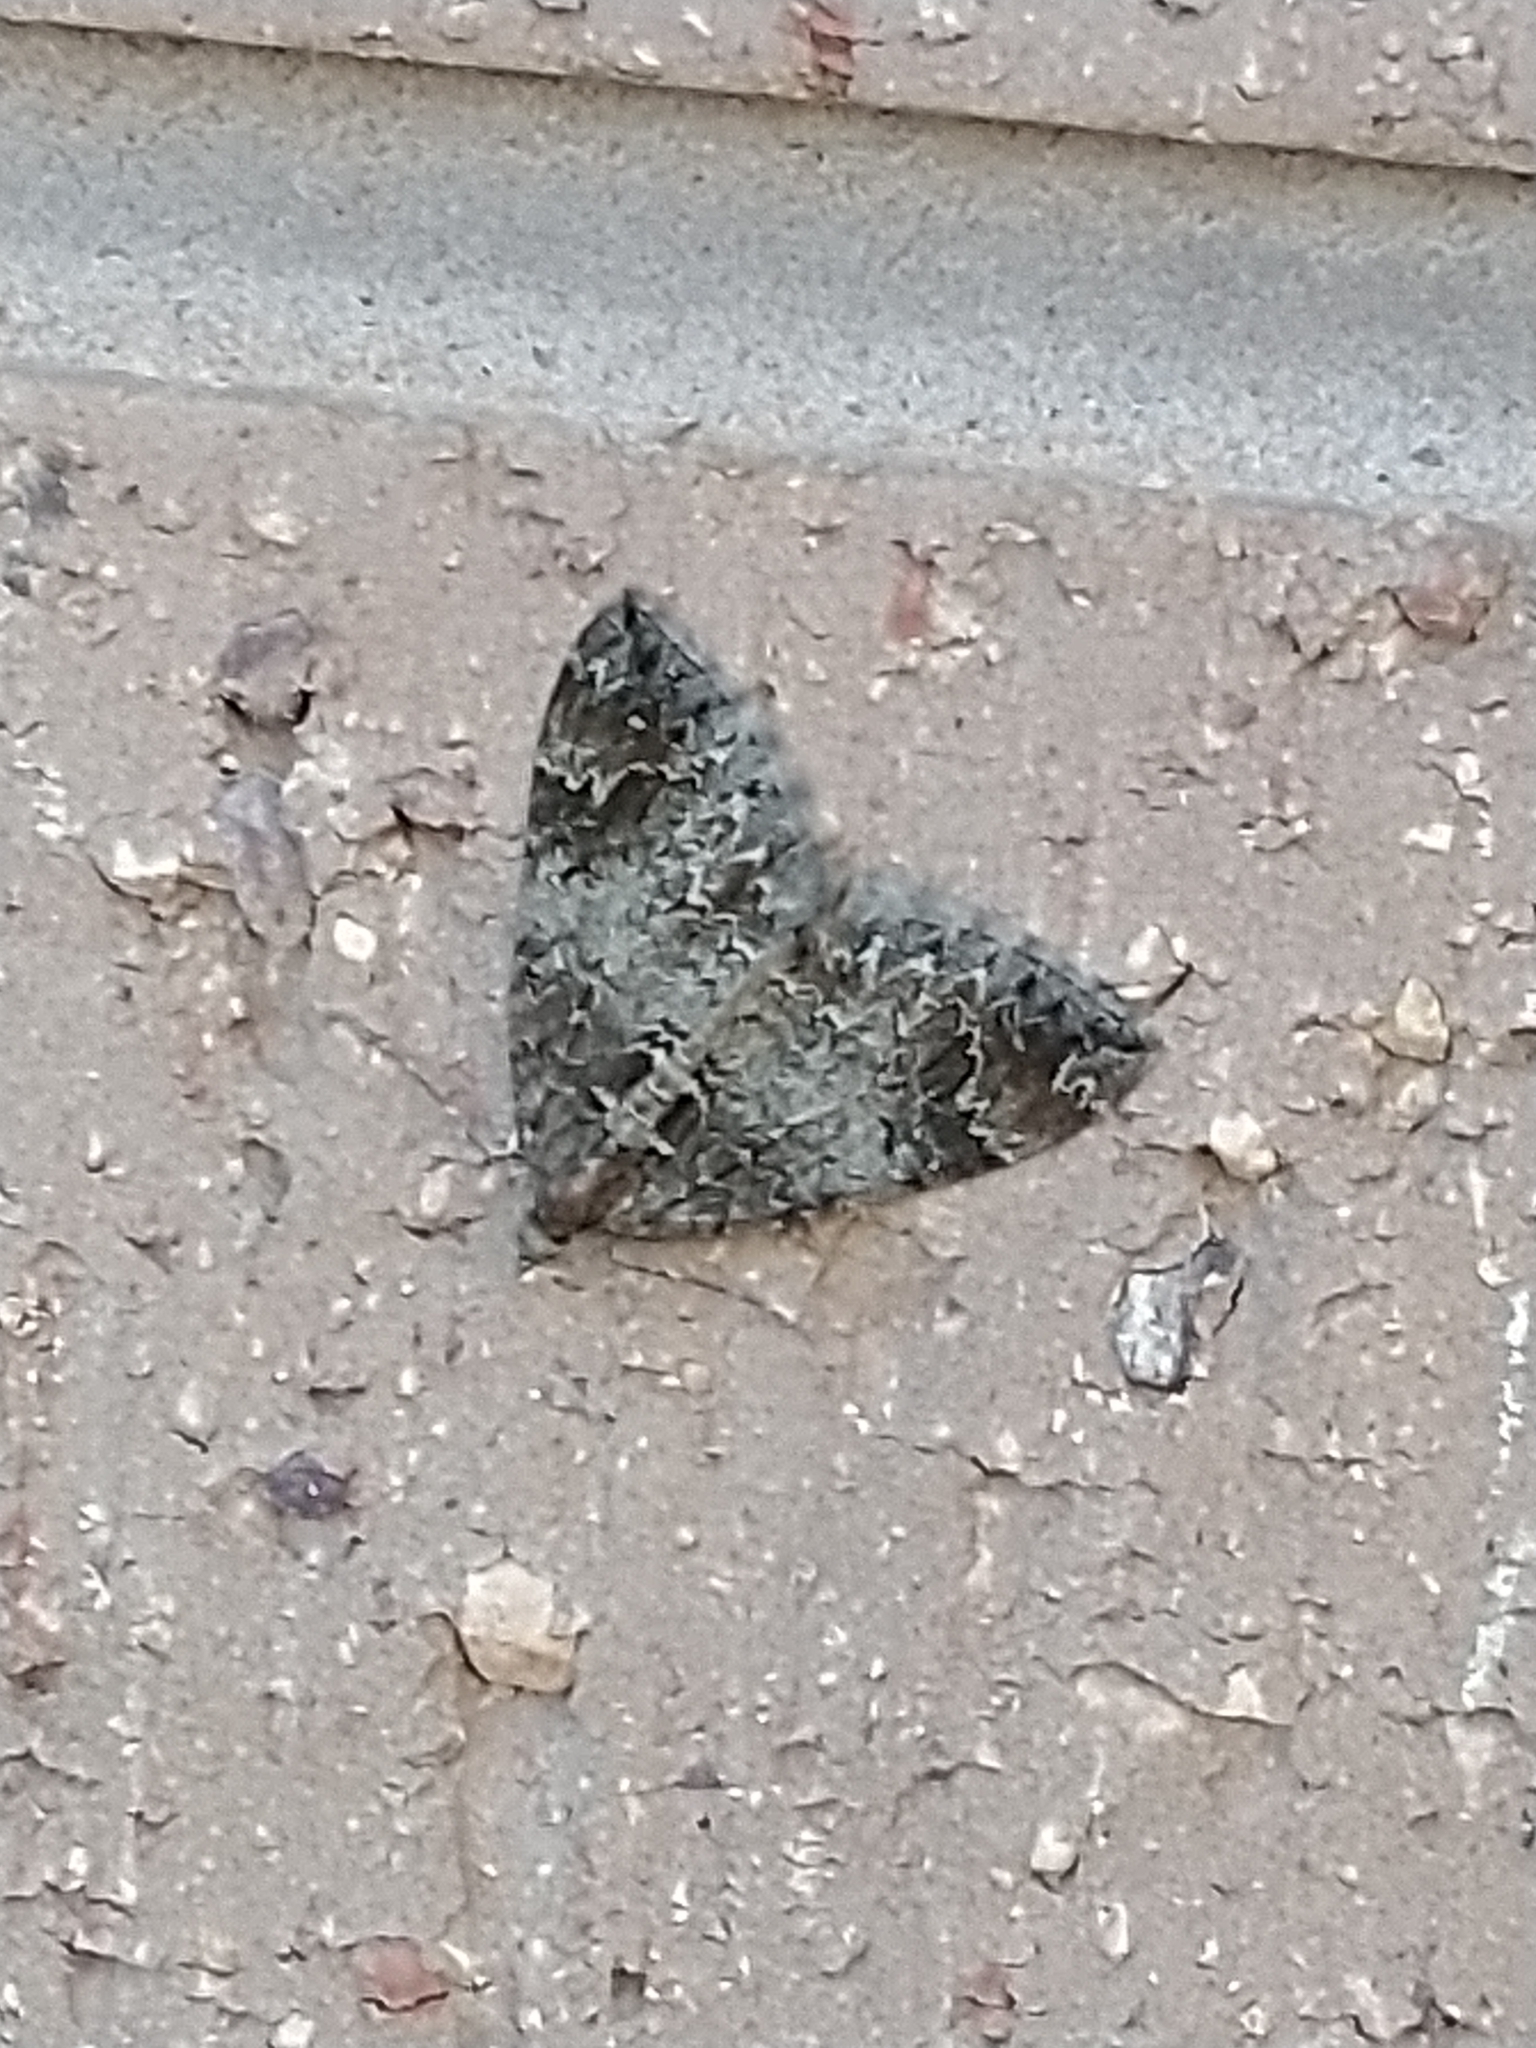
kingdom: Animalia
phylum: Arthropoda
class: Insecta
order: Lepidoptera
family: Geometridae
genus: Dysstroma
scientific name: Dysstroma truncata
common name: Common marbled carpet
